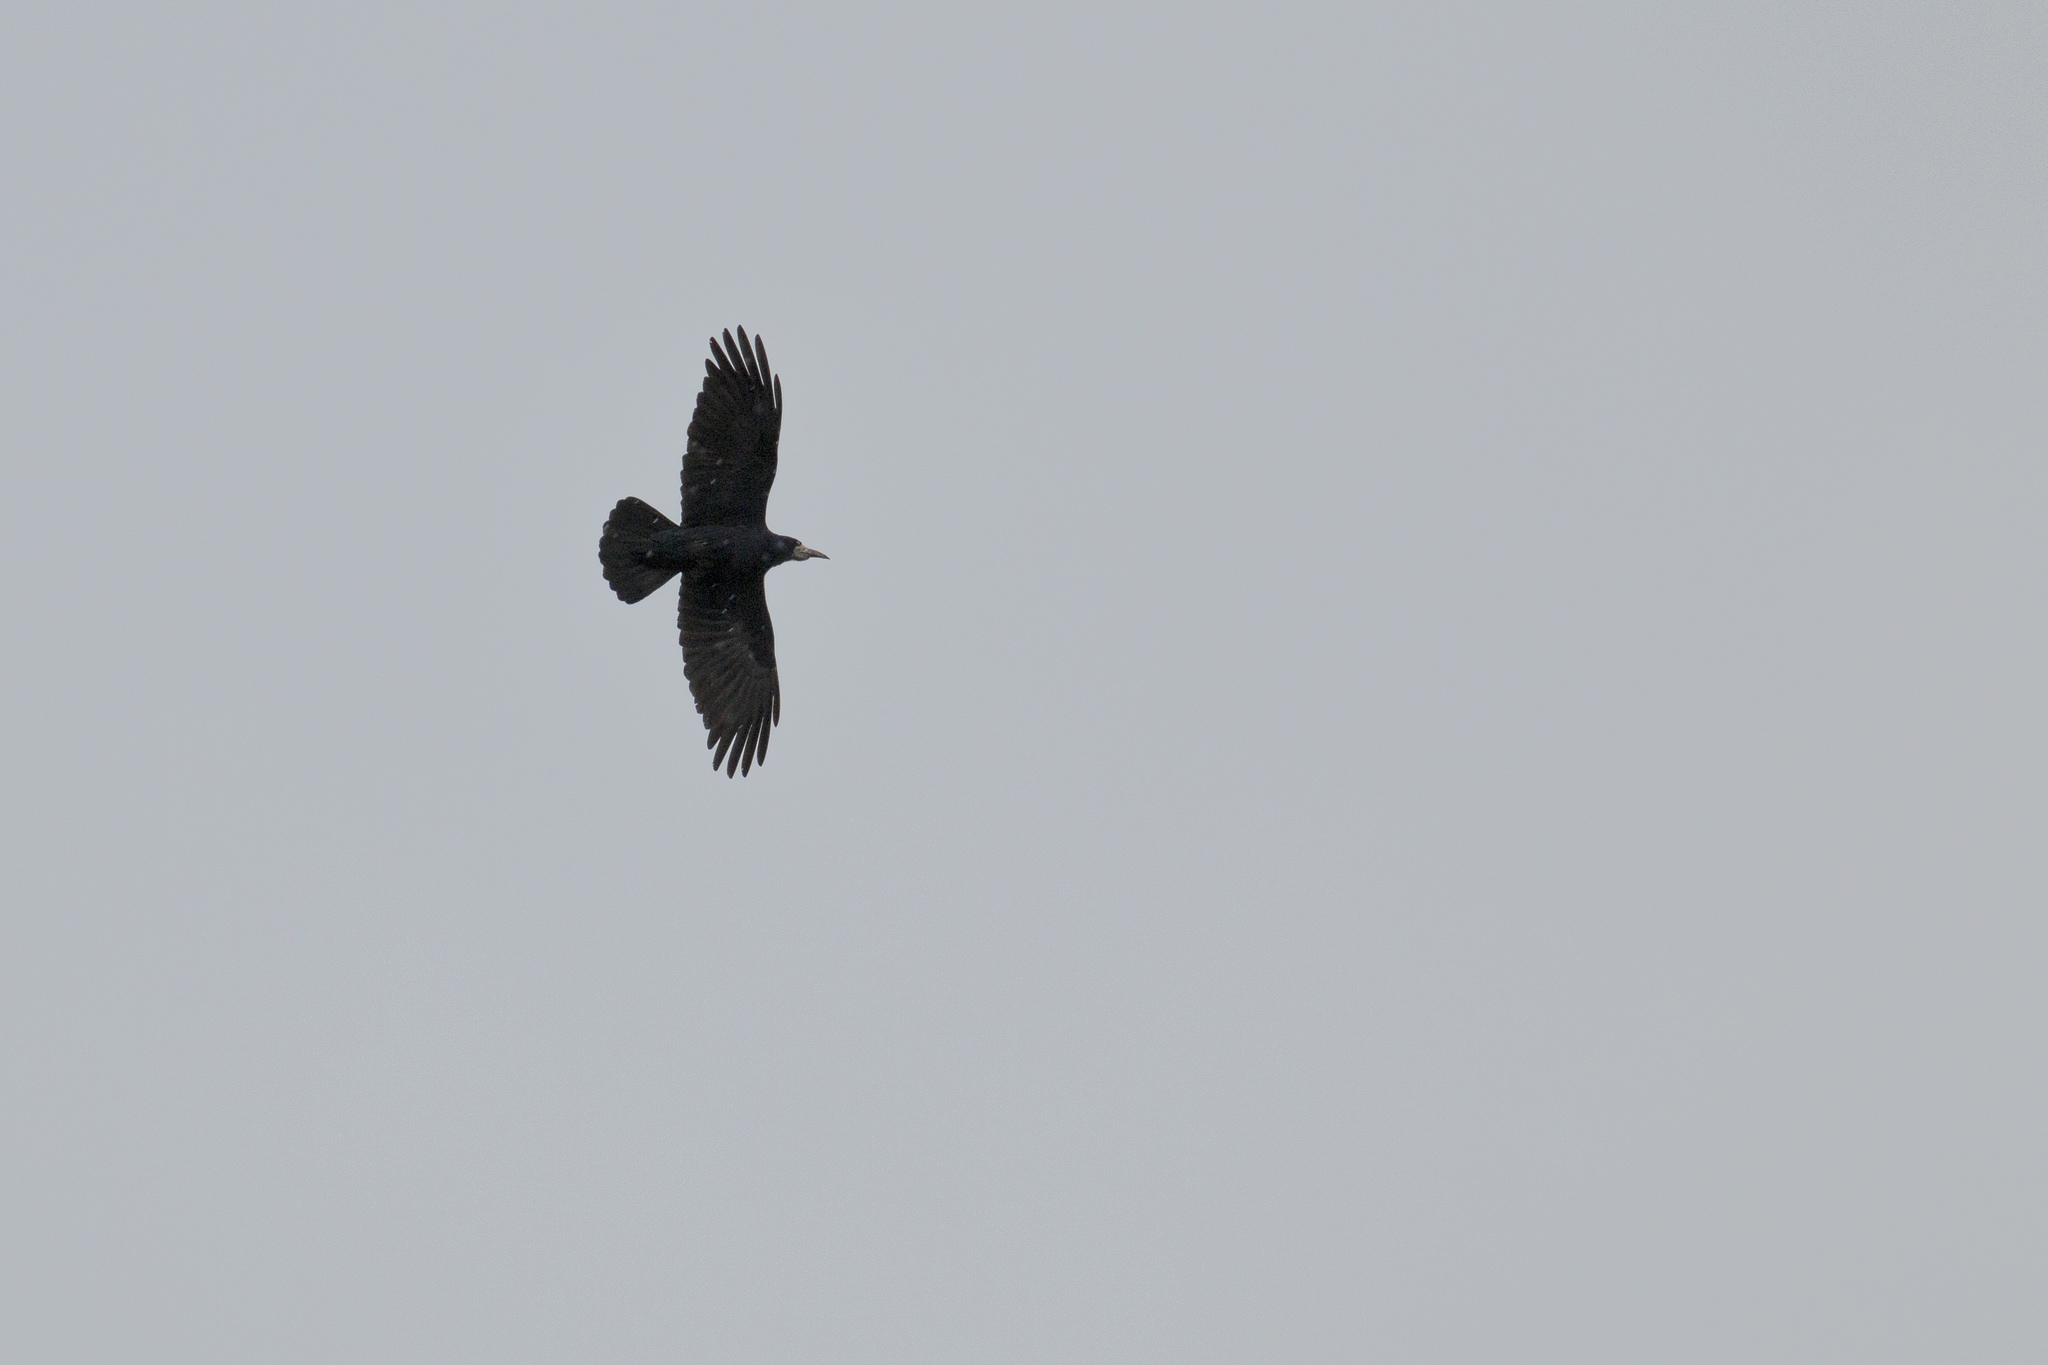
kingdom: Animalia
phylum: Chordata
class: Aves
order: Passeriformes
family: Corvidae
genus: Corvus
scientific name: Corvus frugilegus
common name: Rook
